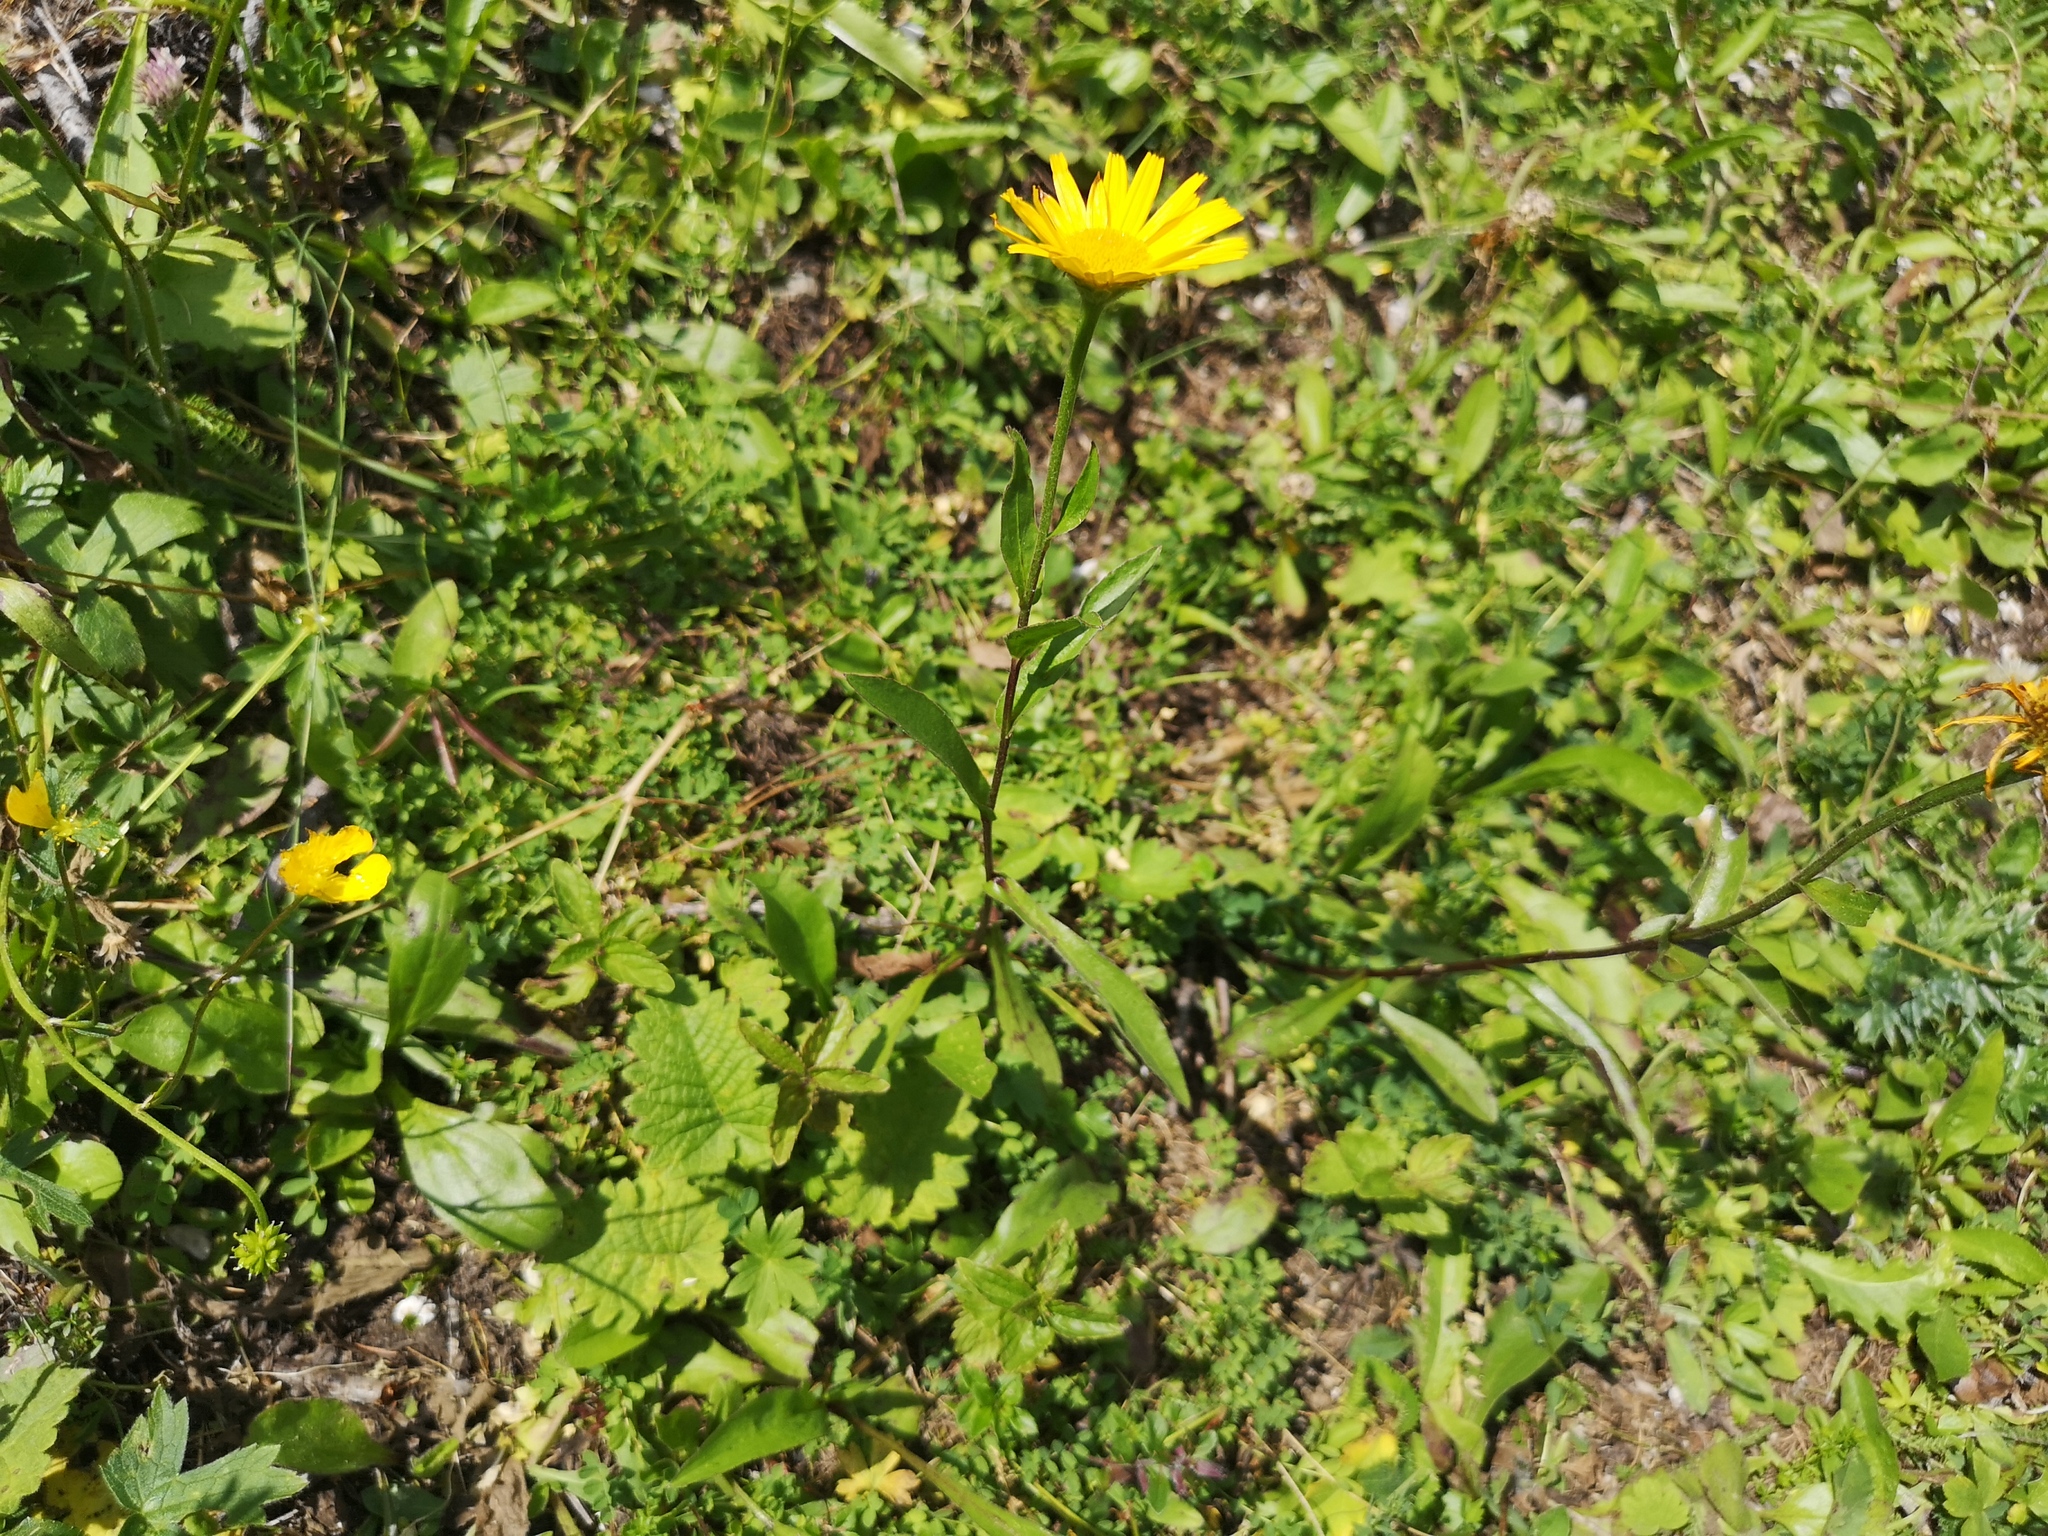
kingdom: Plantae
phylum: Tracheophyta
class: Magnoliopsida
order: Asterales
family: Asteraceae
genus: Buphthalmum
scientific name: Buphthalmum salicifolium
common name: Willow-leaved yellow-oxeye
